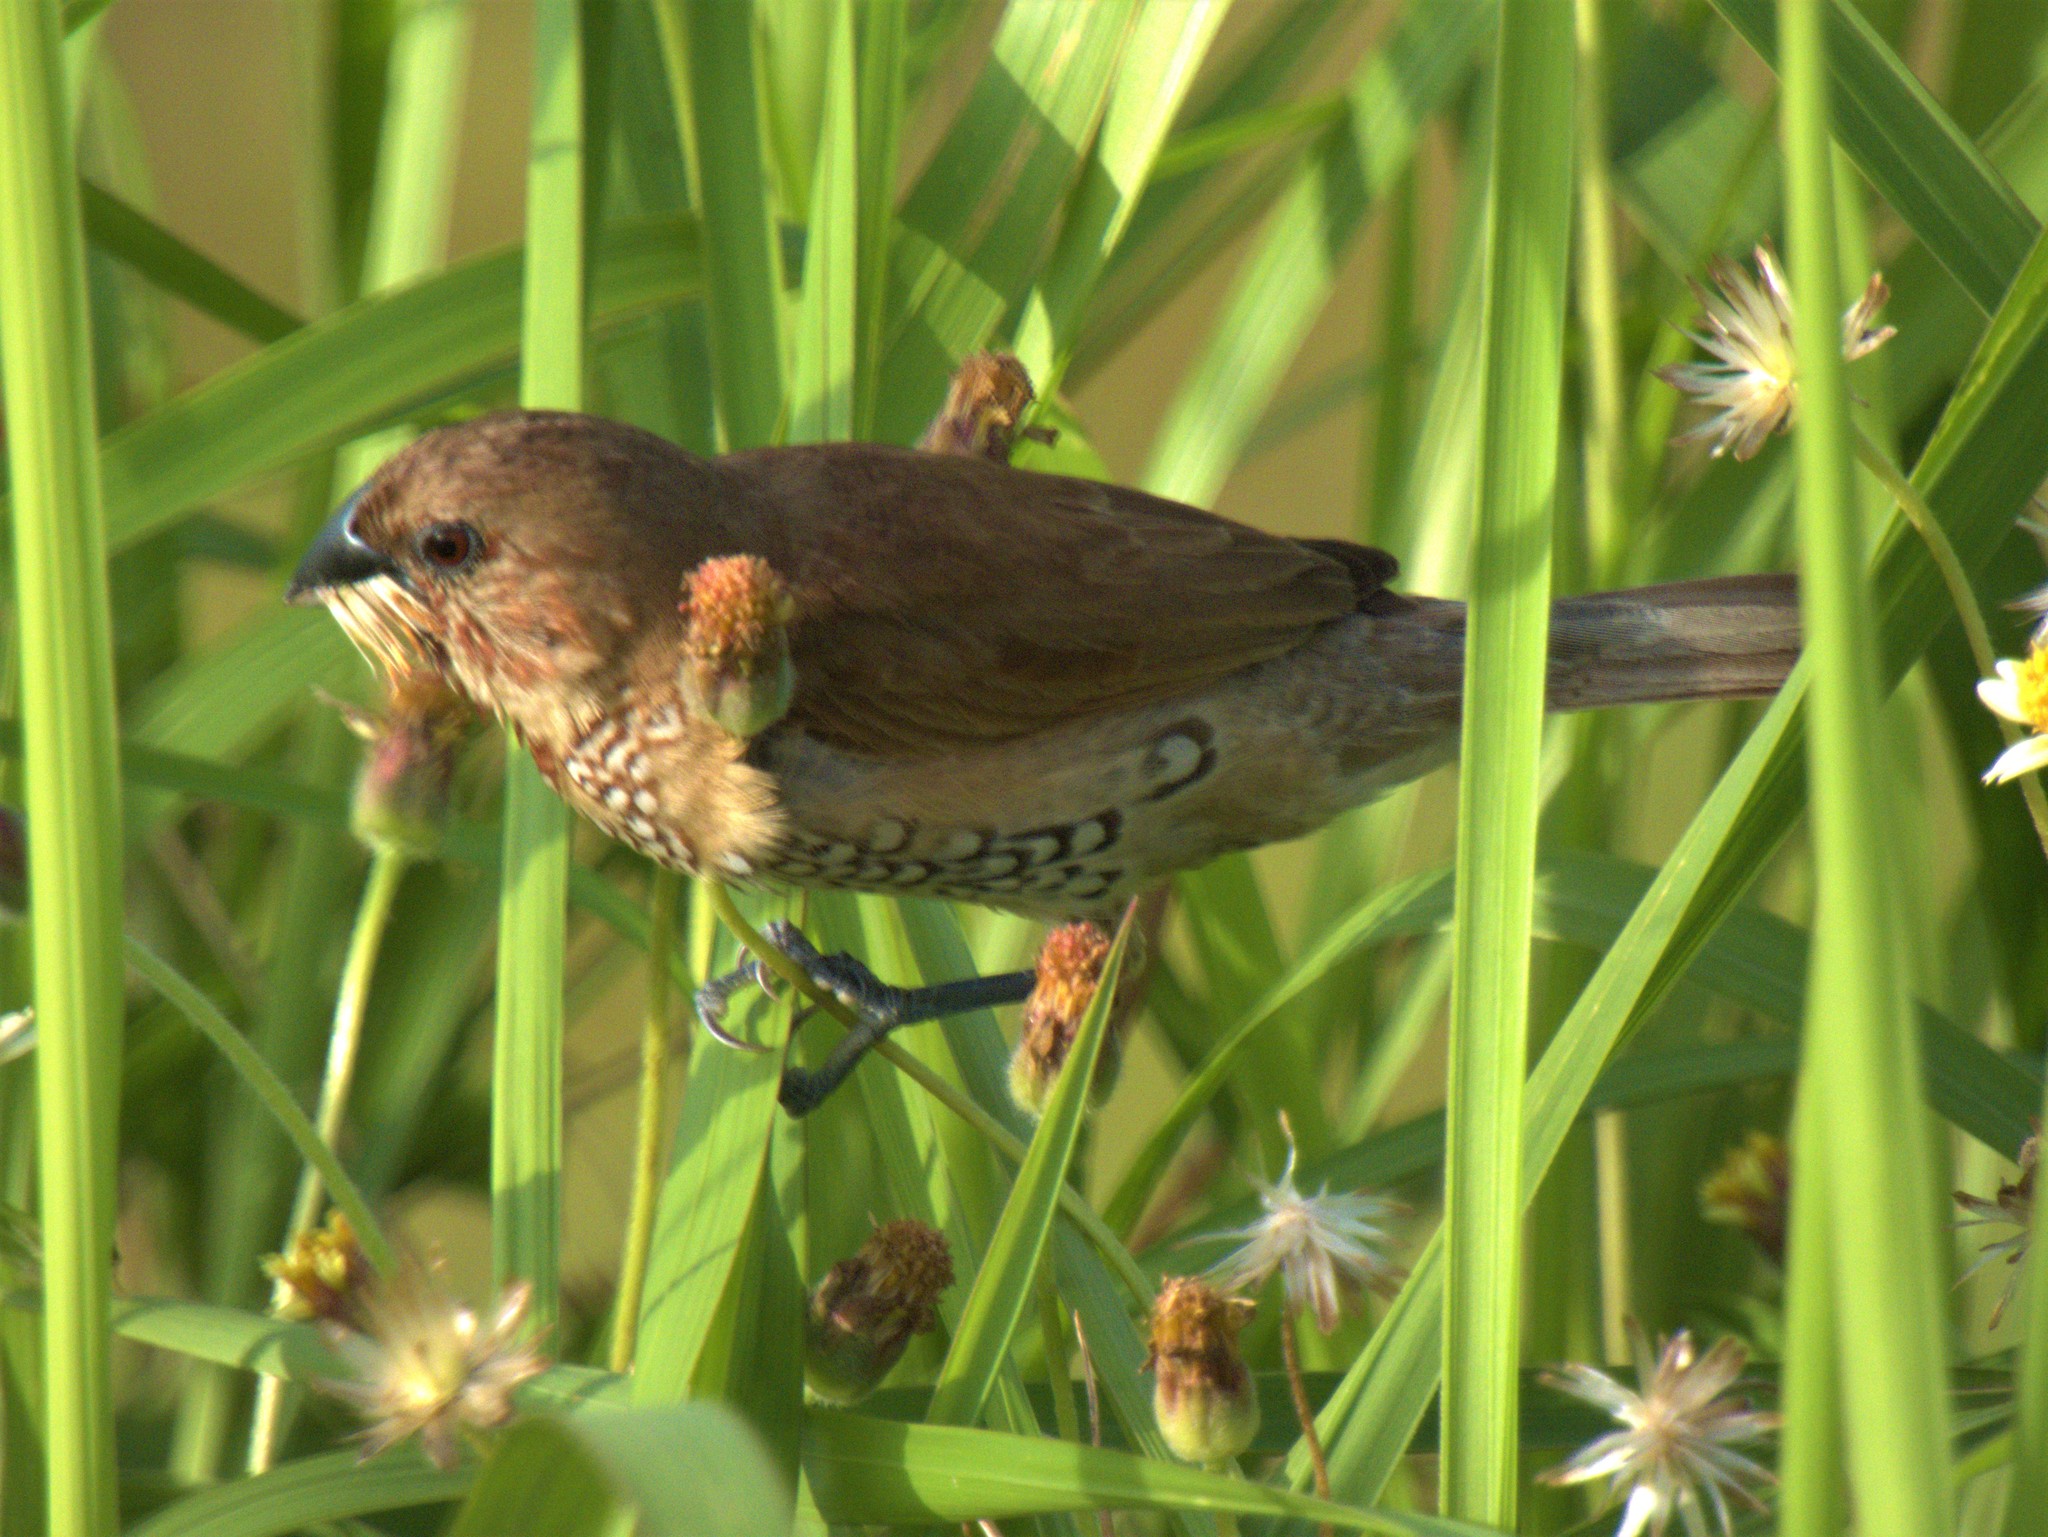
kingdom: Animalia
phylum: Chordata
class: Aves
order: Passeriformes
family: Estrildidae
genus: Lonchura
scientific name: Lonchura punctulata
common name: Scaly-breasted munia
